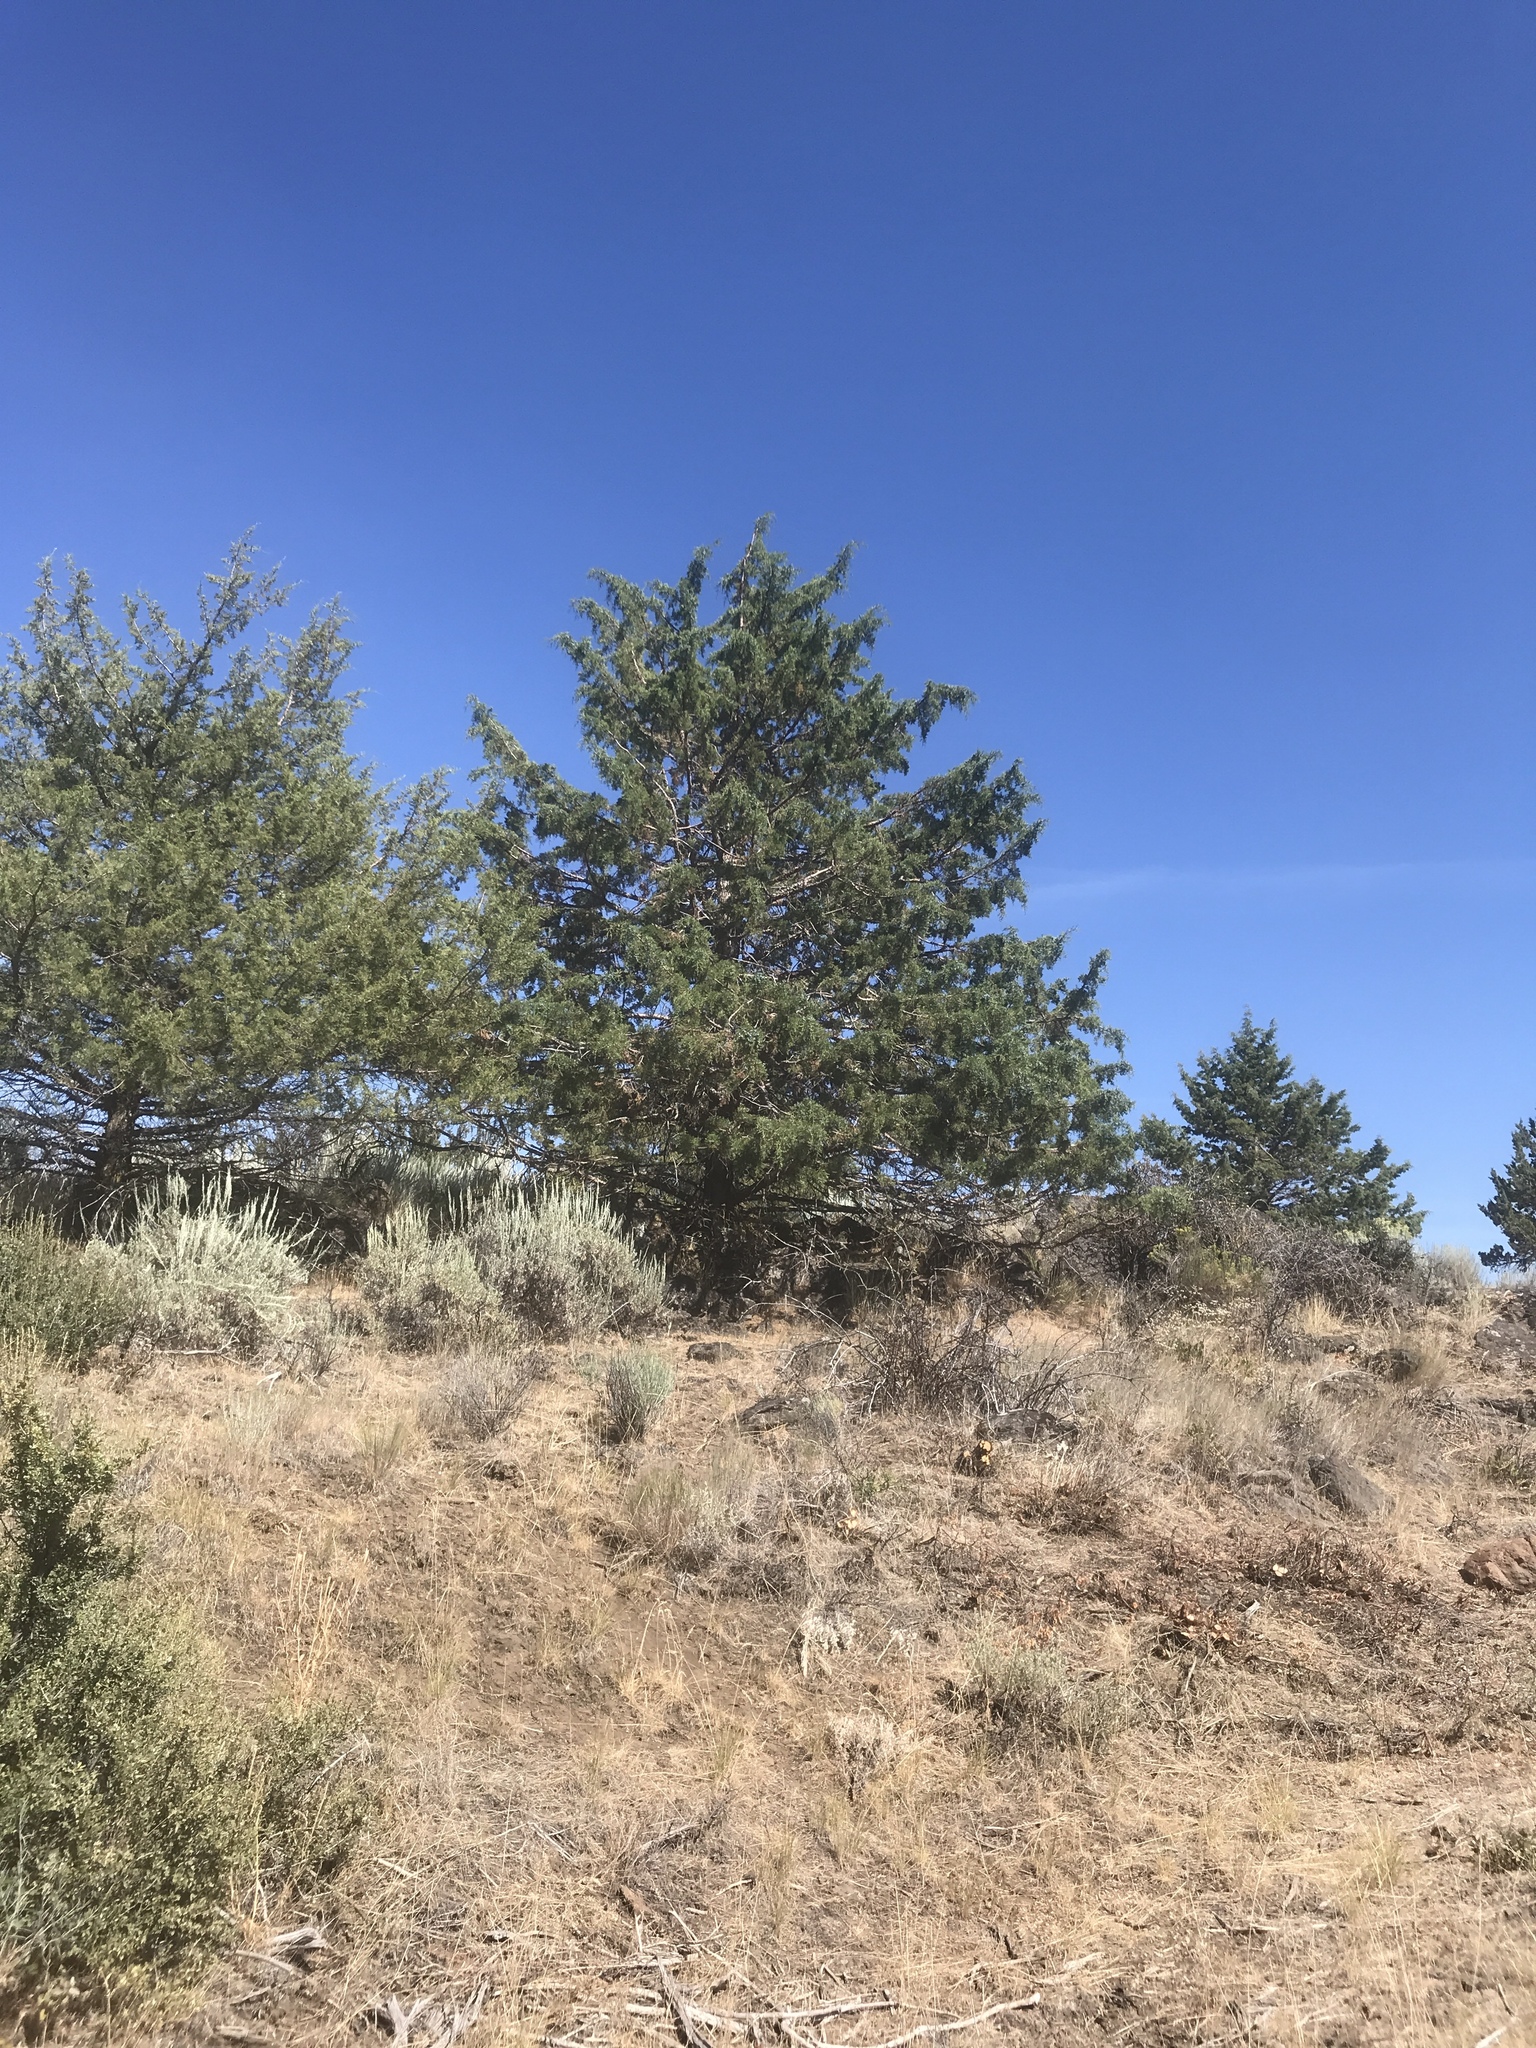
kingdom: Plantae
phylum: Tracheophyta
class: Pinopsida
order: Pinales
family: Cupressaceae
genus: Juniperus
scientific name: Juniperus occidentalis
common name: Western juniper
